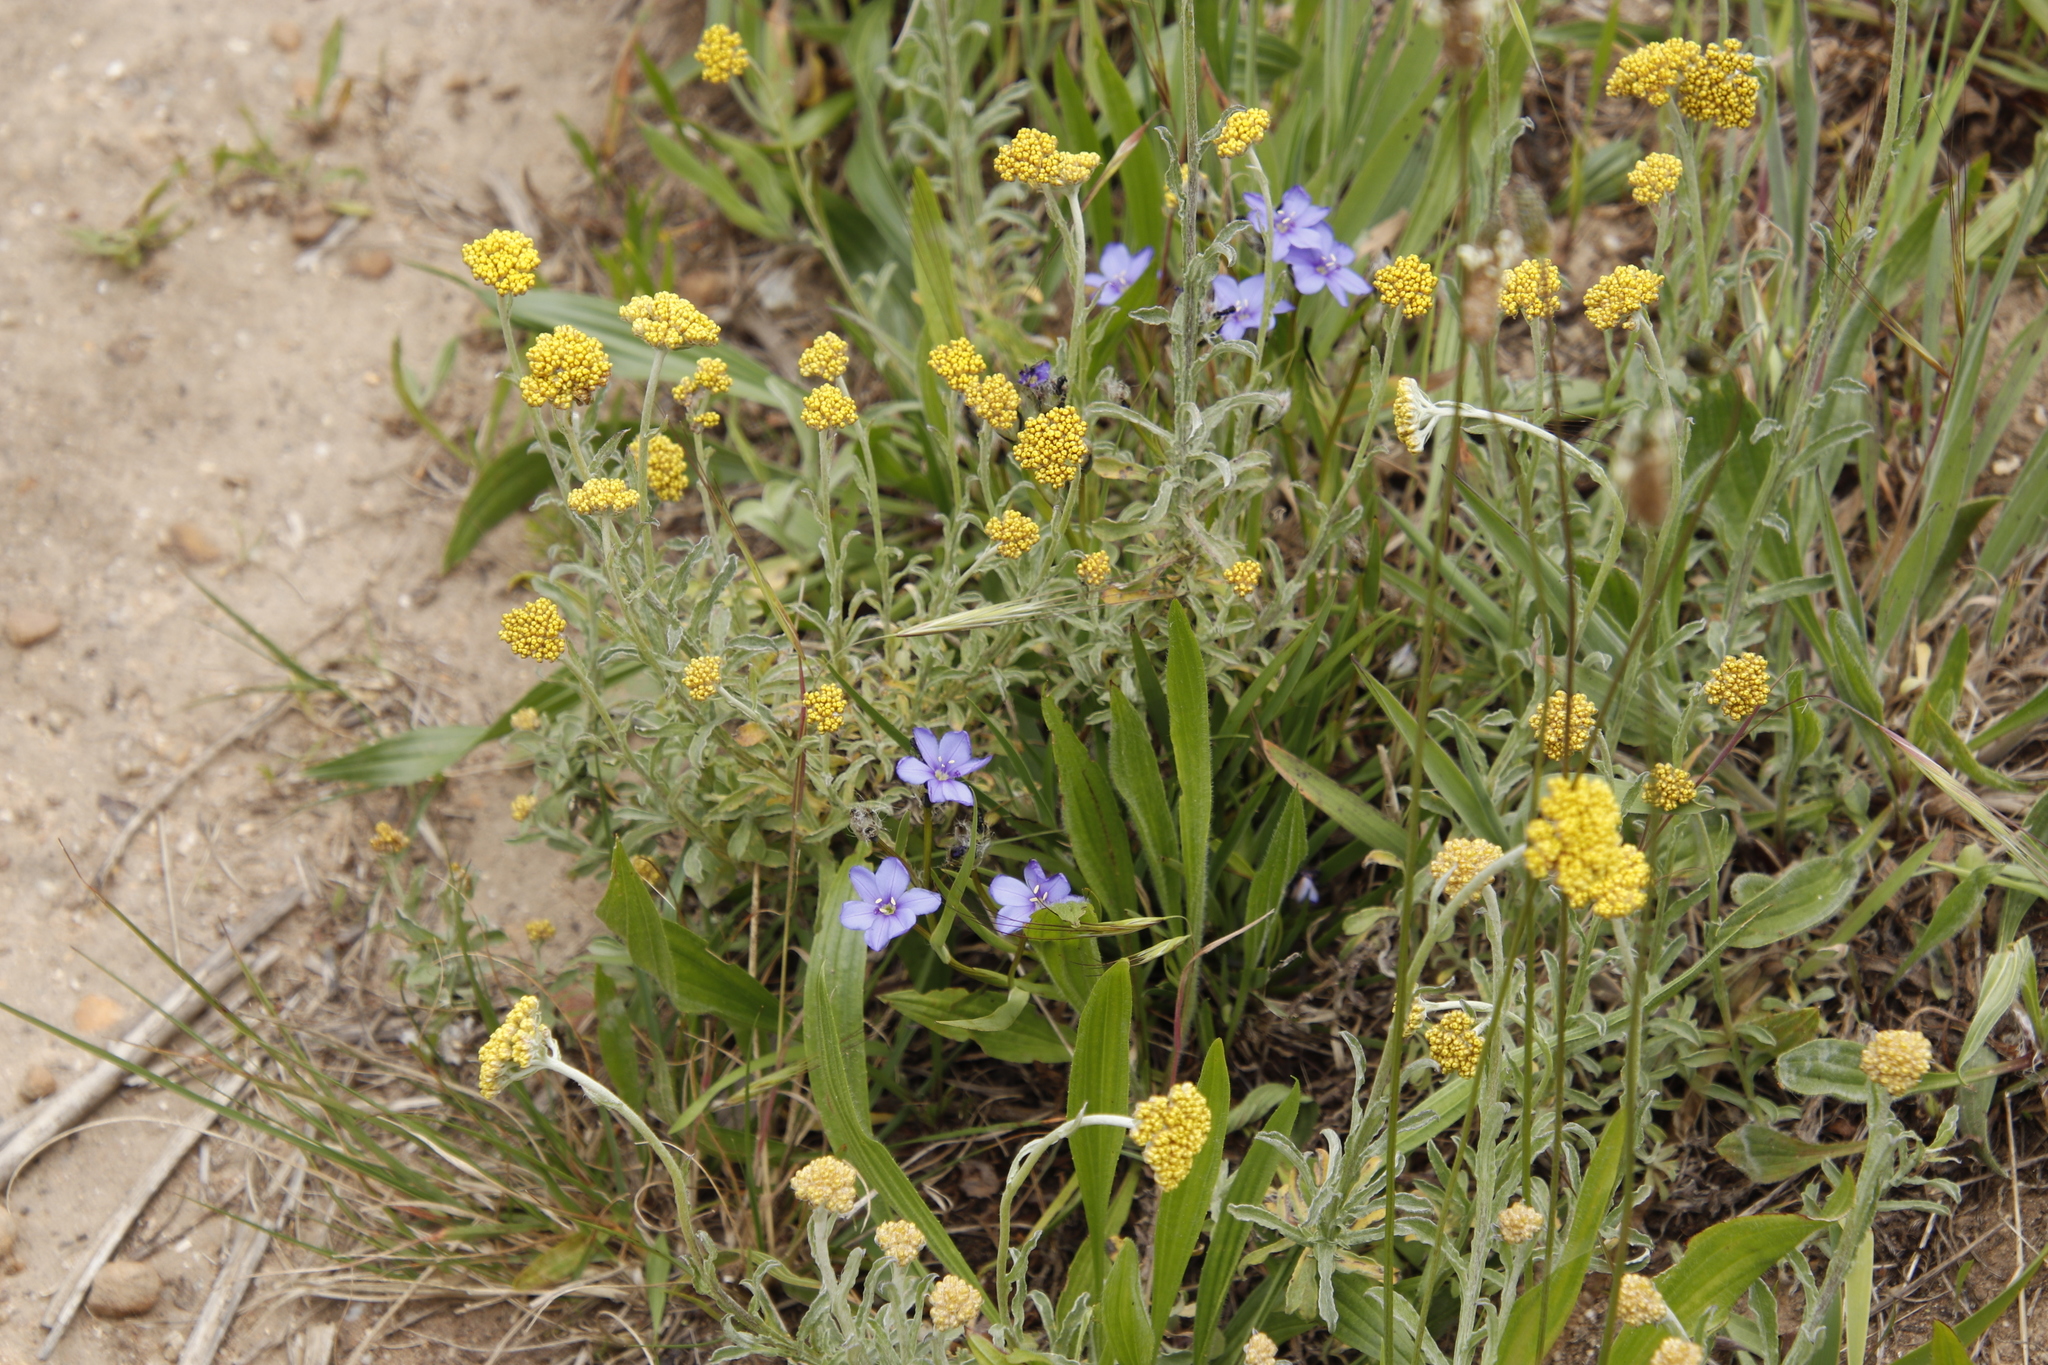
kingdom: Plantae
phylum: Tracheophyta
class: Liliopsida
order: Asparagales
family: Iridaceae
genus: Aristea
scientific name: Aristea africana
